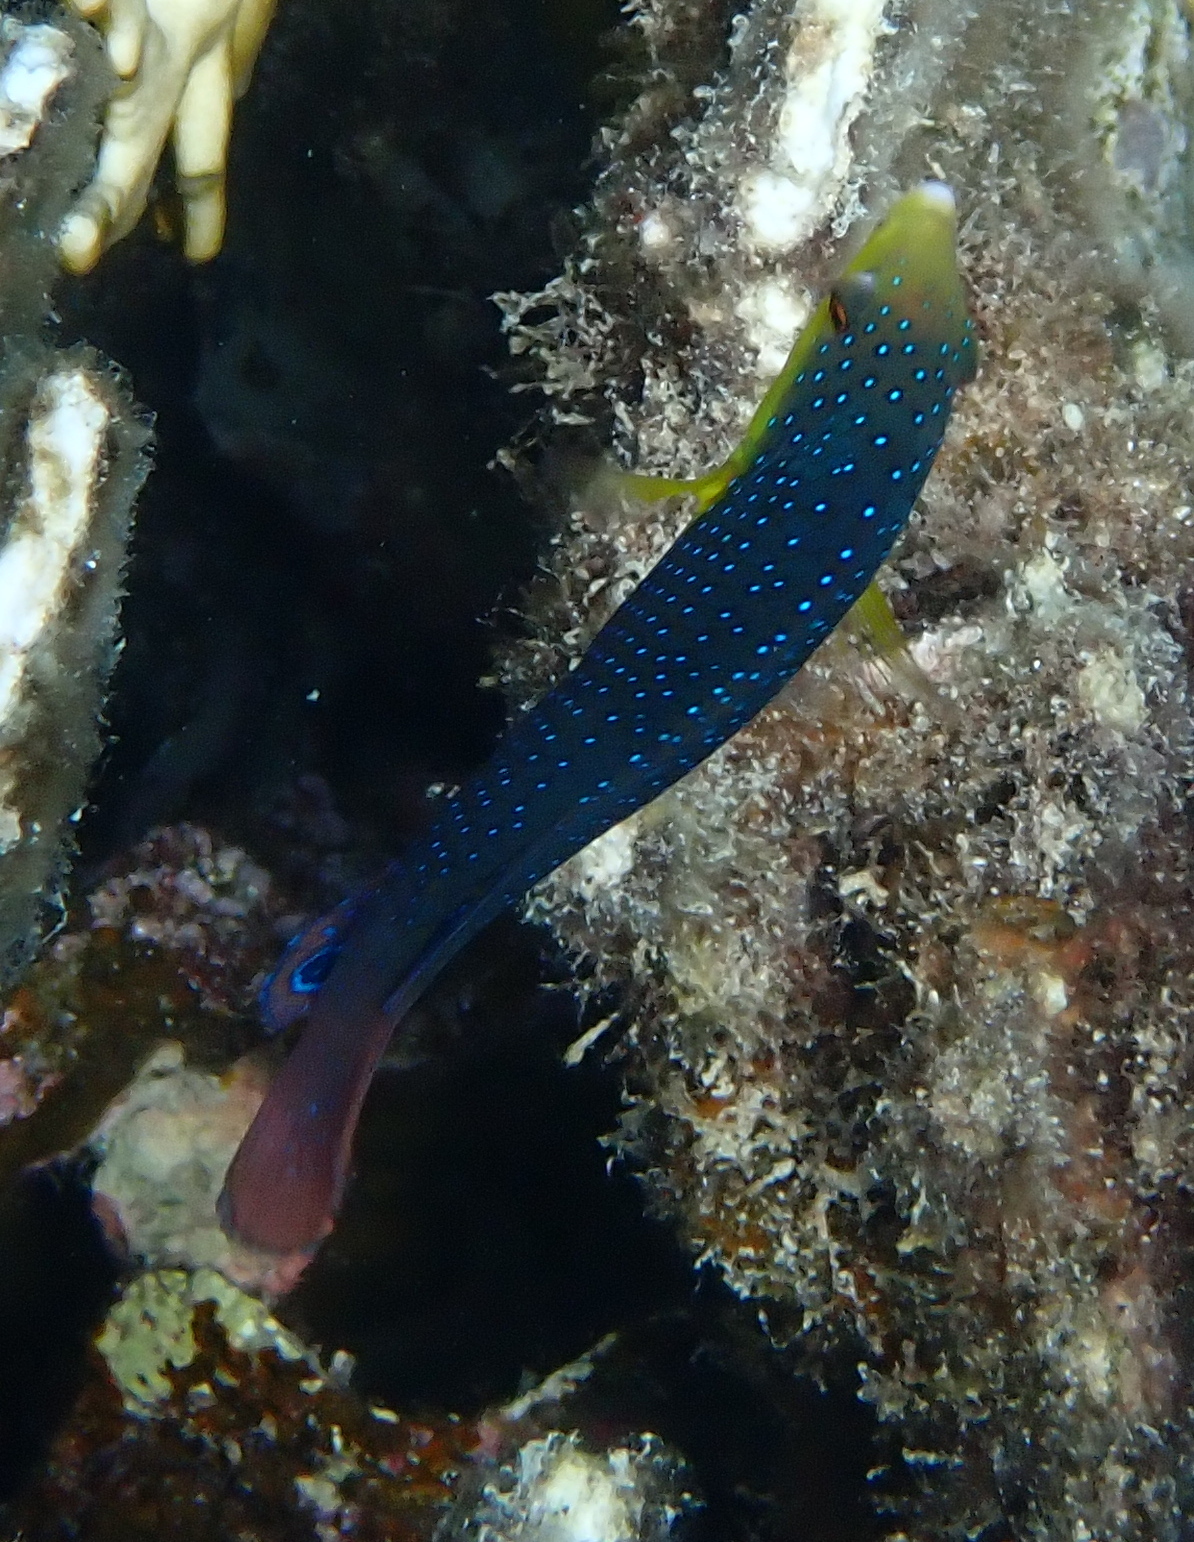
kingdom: Animalia
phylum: Chordata
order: Perciformes
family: Labridae
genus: Anampses
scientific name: Anampses twistii
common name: Yellowbreasted wrasse
